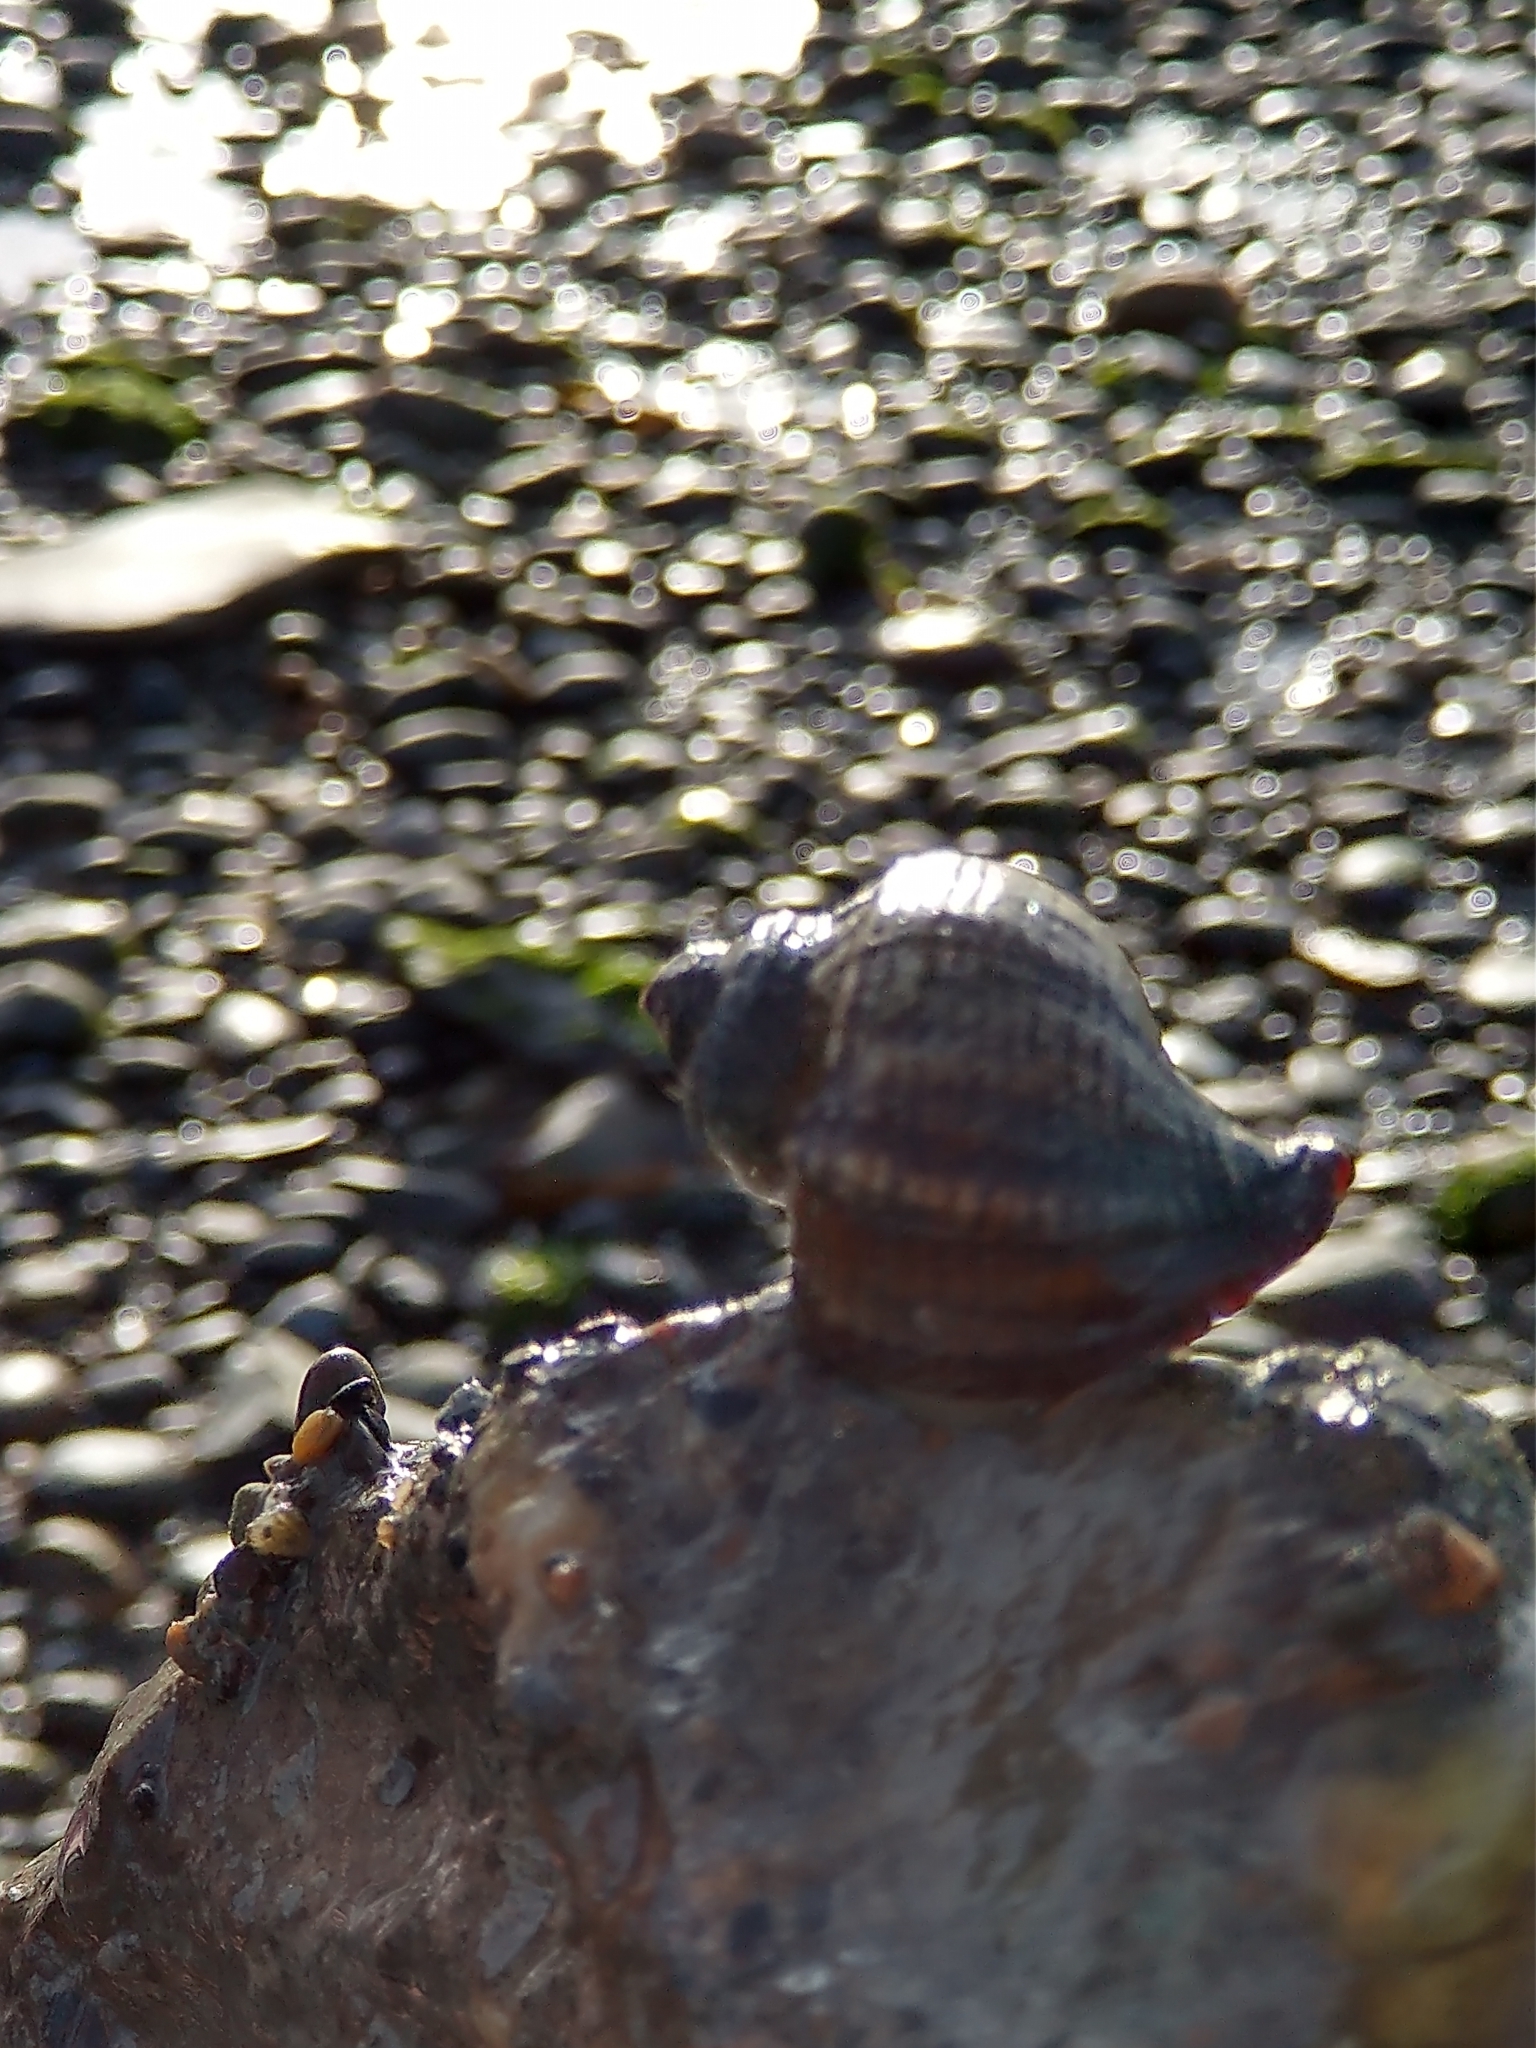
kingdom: Animalia
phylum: Mollusca
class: Gastropoda
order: Neogastropoda
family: Muricidae
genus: Trophon
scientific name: Trophon geversianus
